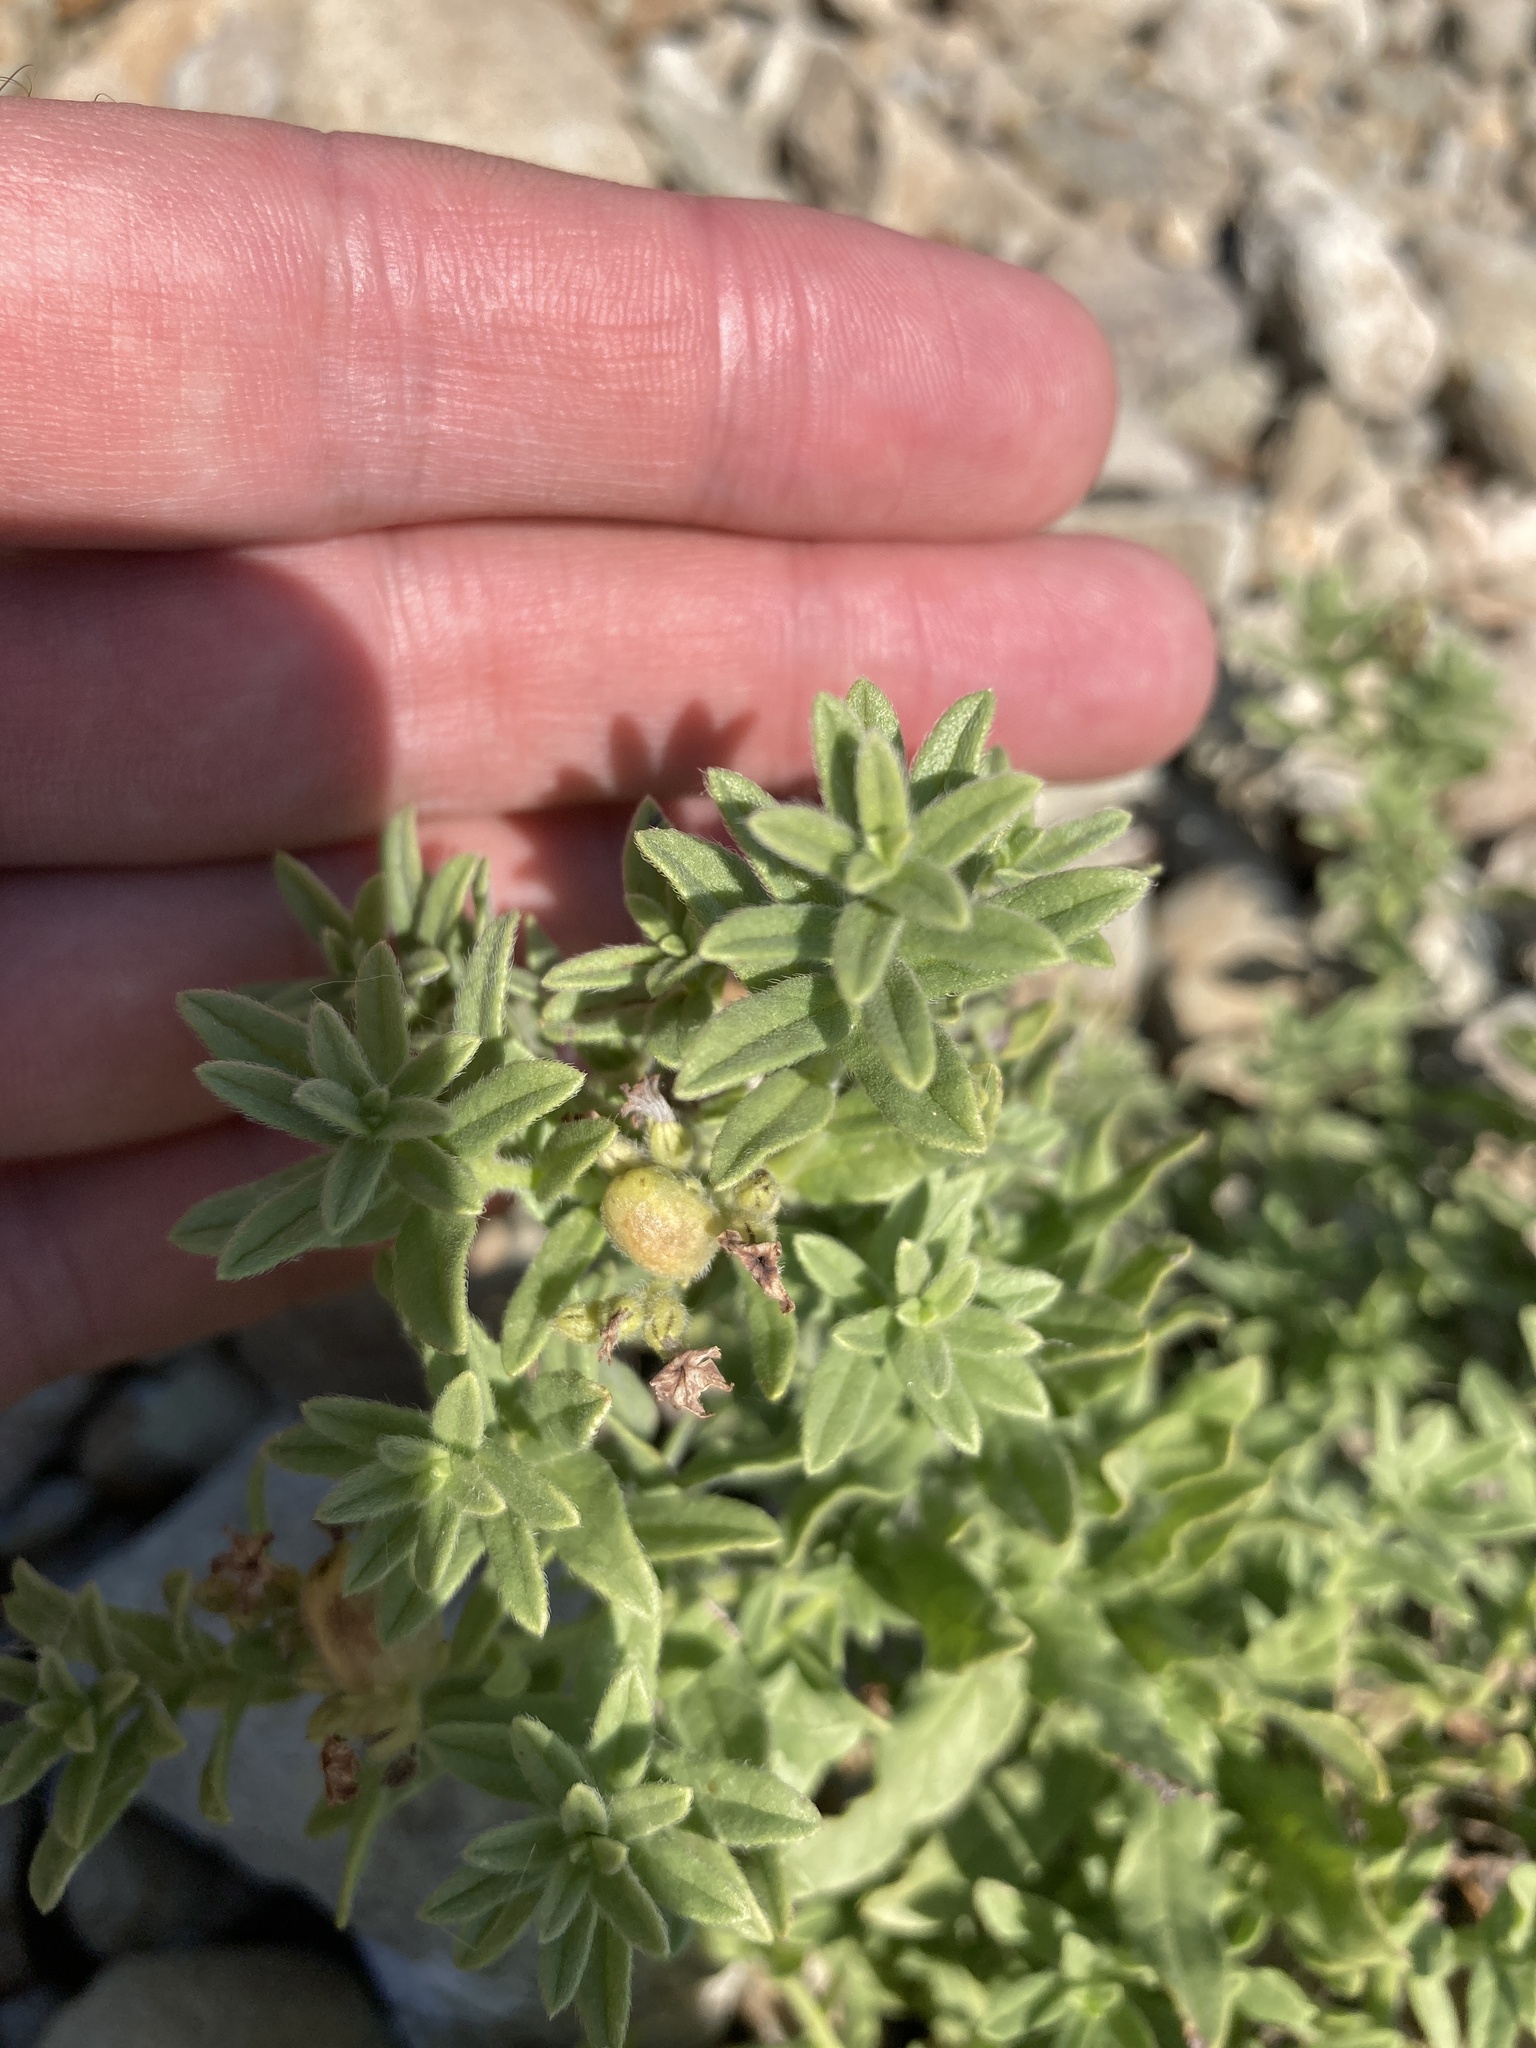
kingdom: Plantae
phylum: Tracheophyta
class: Magnoliopsida
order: Boraginales
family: Heliotropiaceae
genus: Tournefortia
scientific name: Tournefortia sibirica
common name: Siberian sea rosemary
